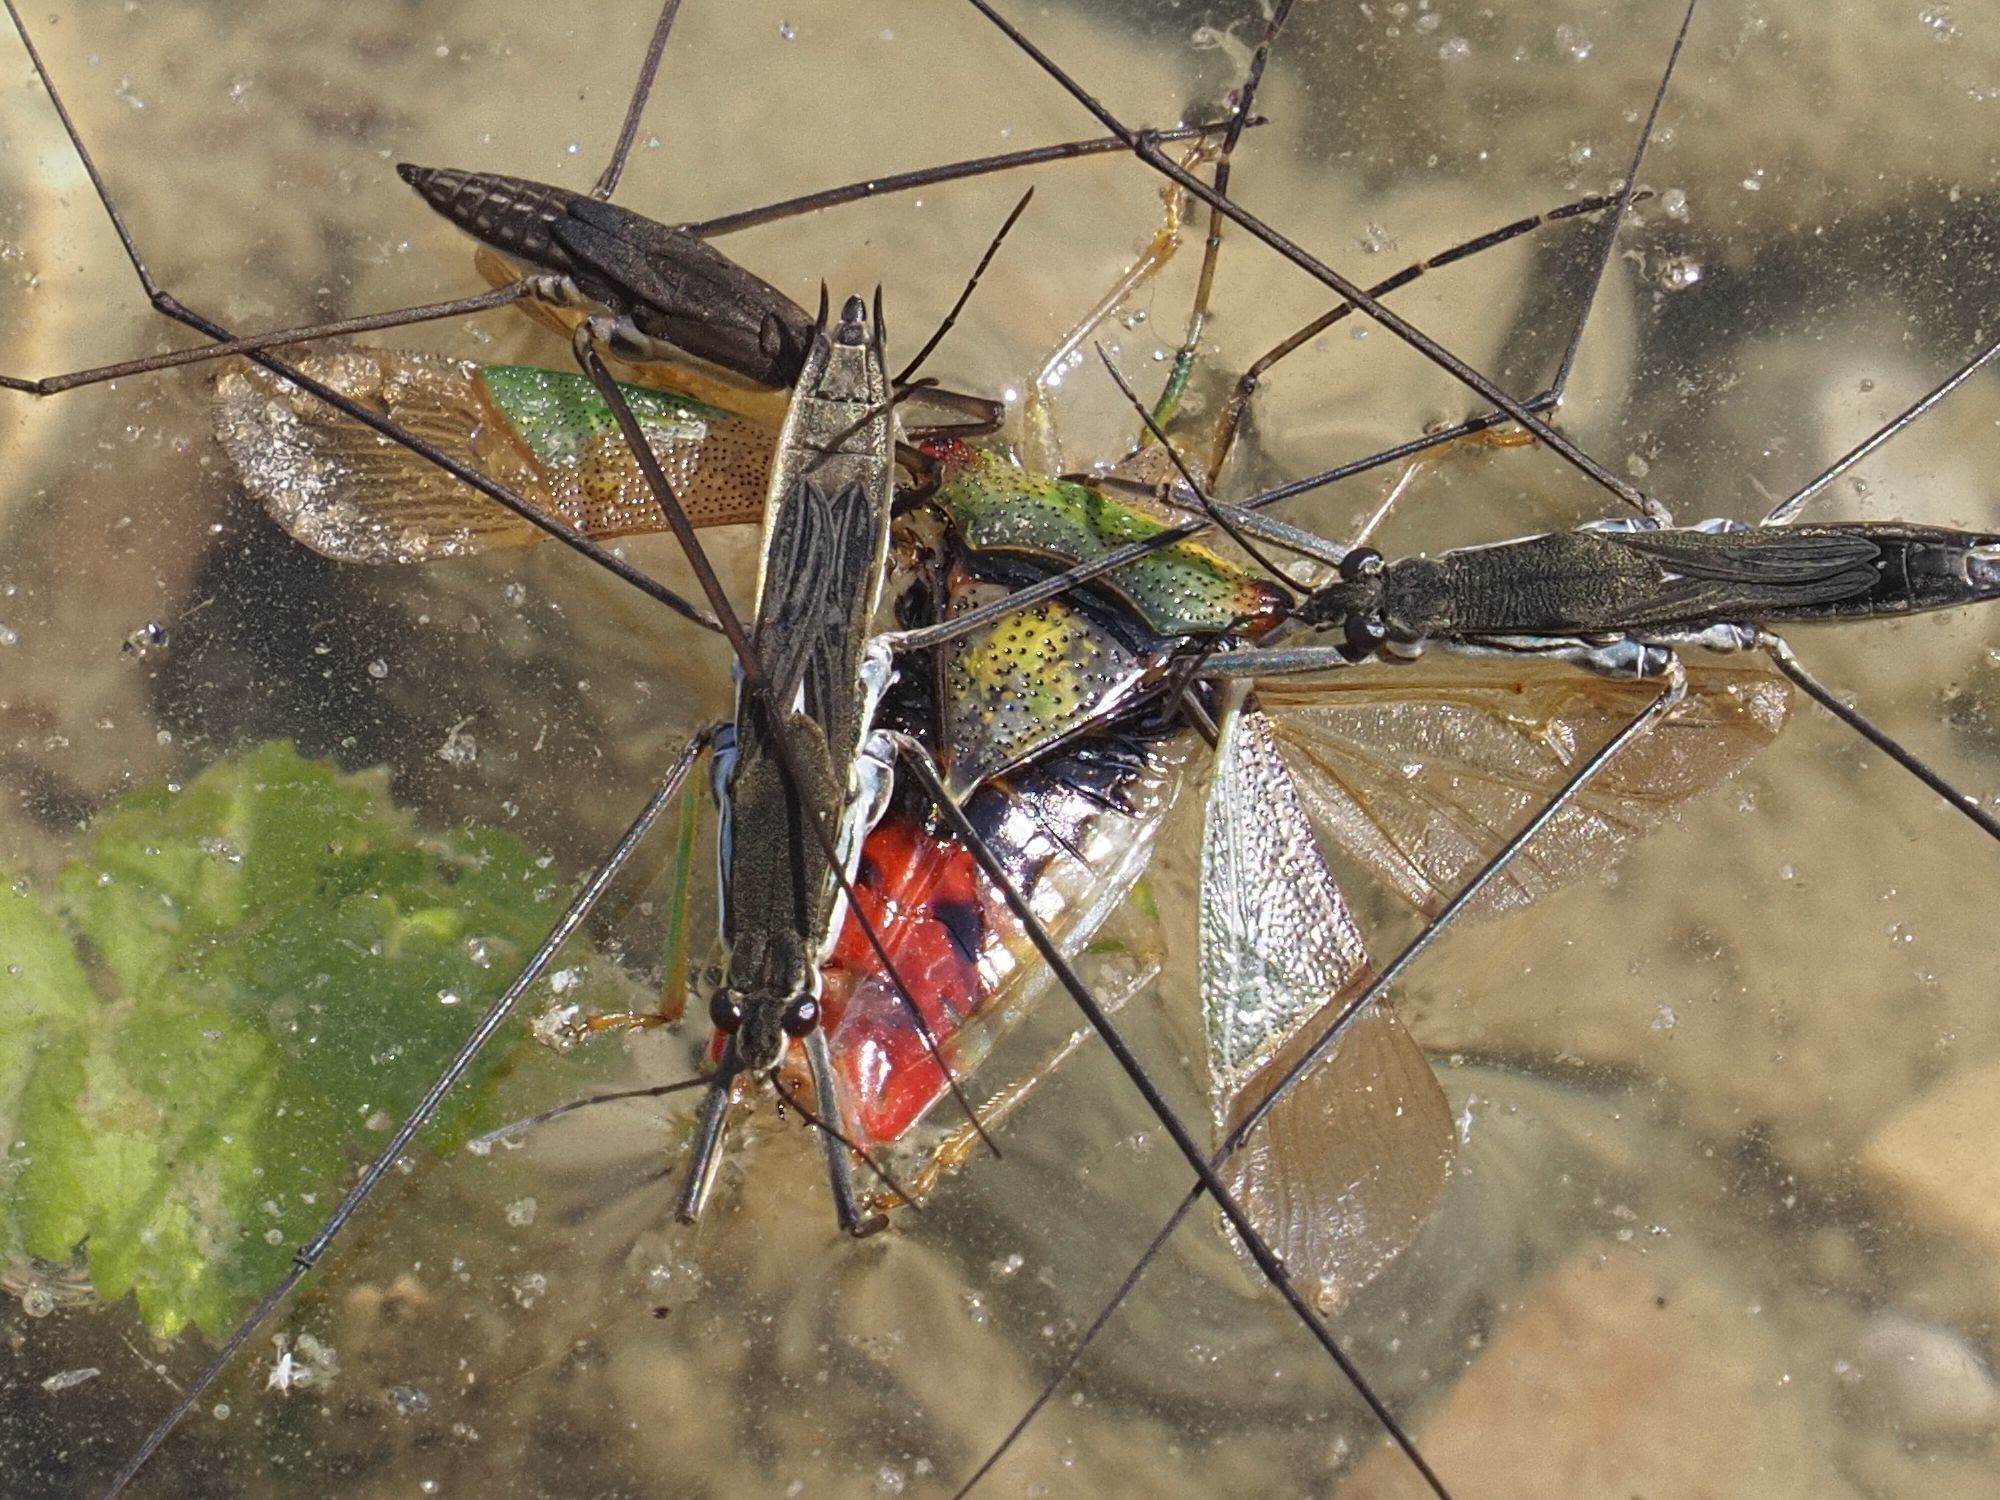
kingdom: Animalia
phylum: Arthropoda
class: Insecta
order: Hemiptera
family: Acanthosomatidae
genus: Acanthosoma
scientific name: Acanthosoma haemorrhoidale
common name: Hawthorn shieldbug
